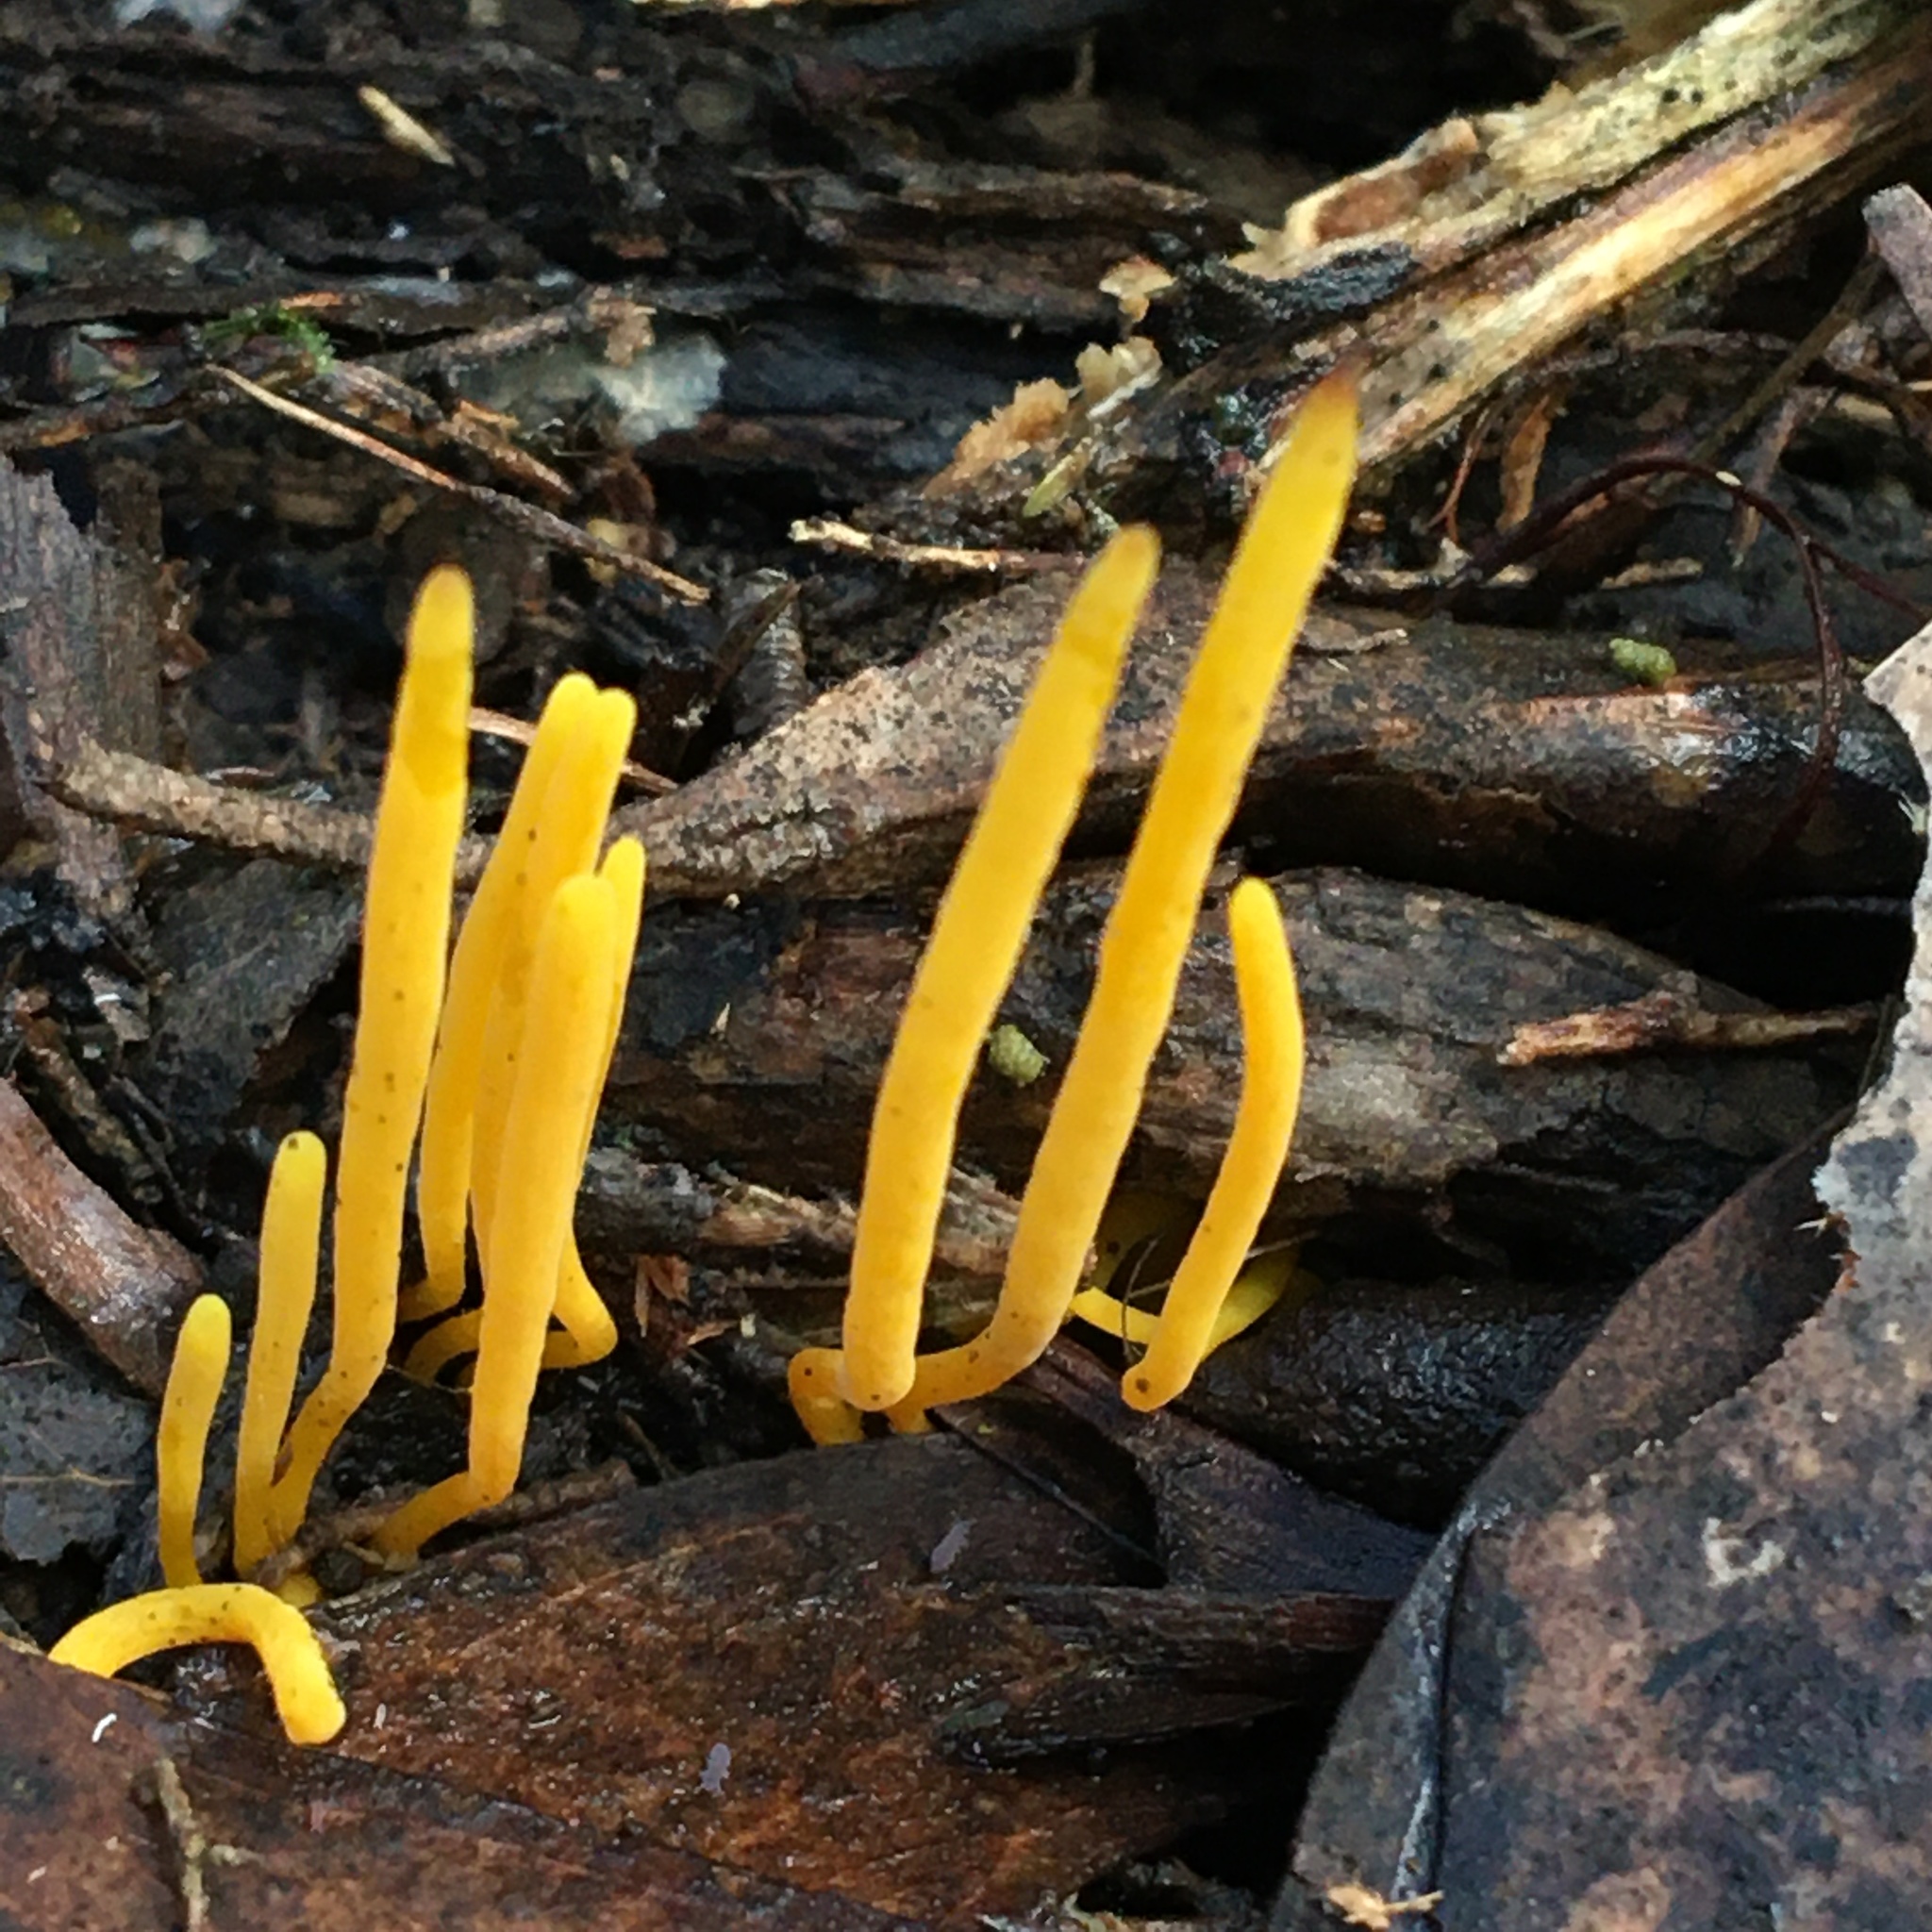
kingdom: Fungi
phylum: Basidiomycota
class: Agaricomycetes
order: Agaricales
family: Clavariaceae
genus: Clavulinopsis
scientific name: Clavulinopsis amoena
